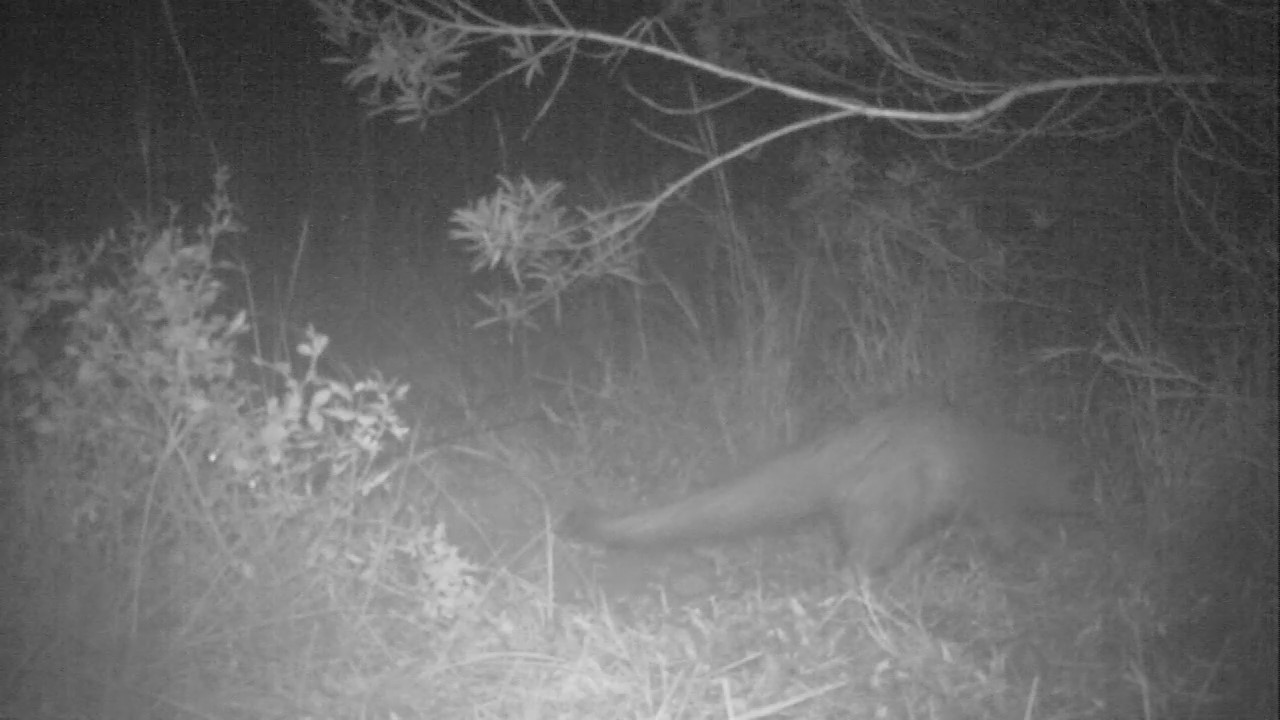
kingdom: Animalia
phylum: Chordata
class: Mammalia
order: Carnivora
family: Herpestidae
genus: Atilax
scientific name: Atilax paludinosus
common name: Marsh mongoose
